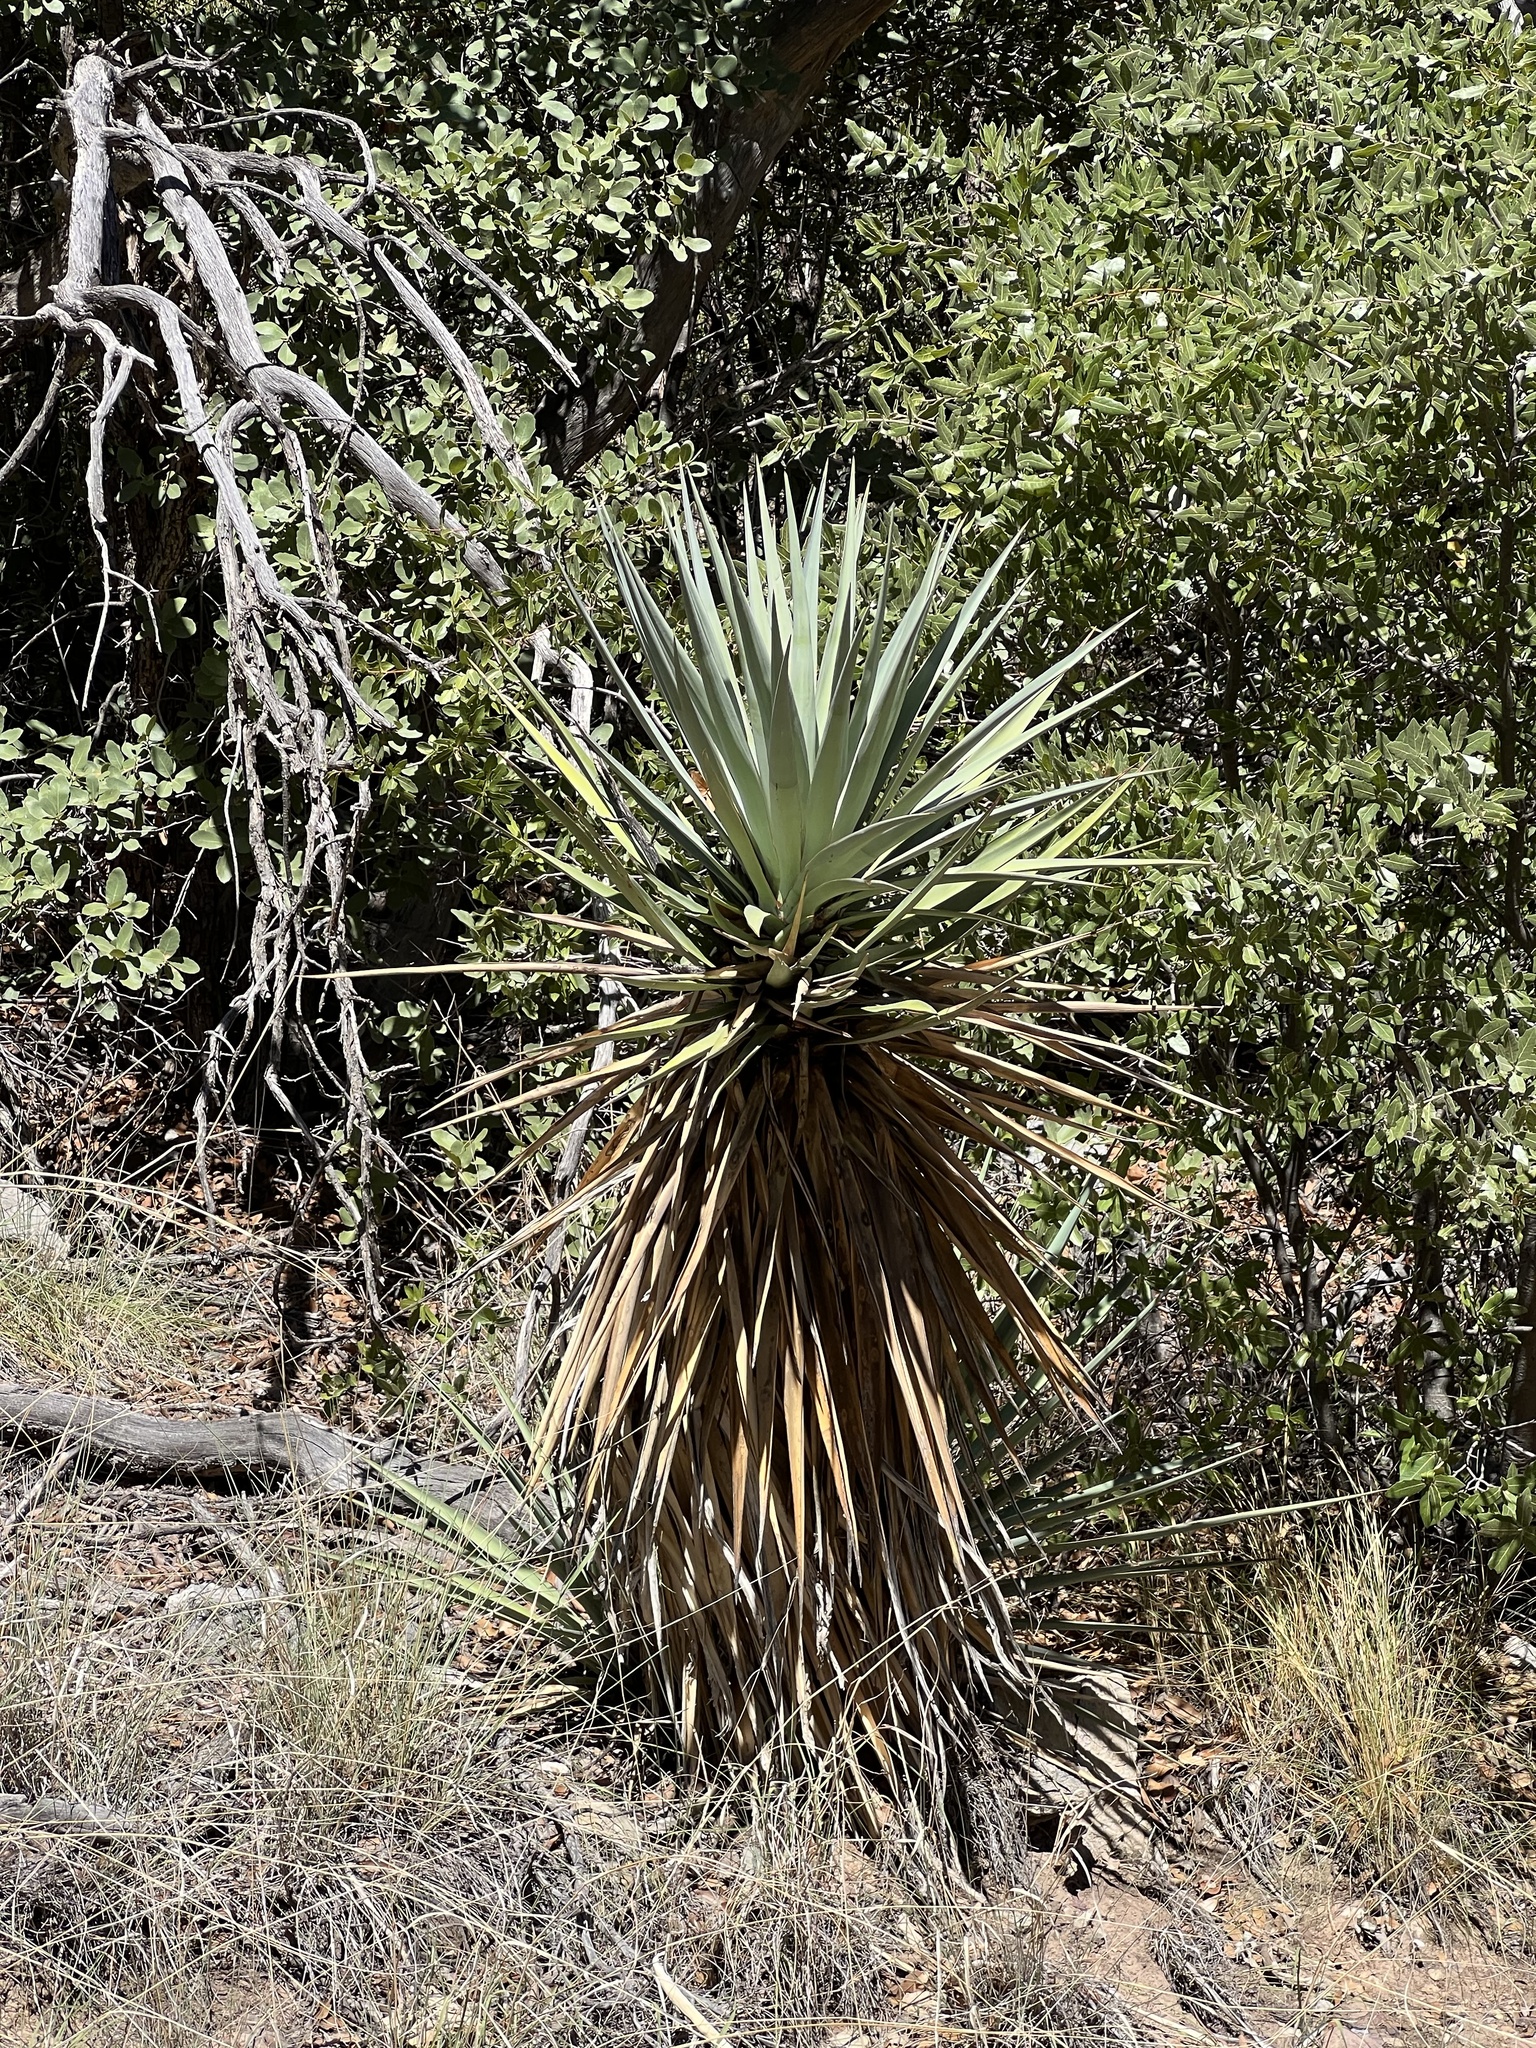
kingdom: Plantae
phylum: Tracheophyta
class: Liliopsida
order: Asparagales
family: Asparagaceae
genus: Yucca
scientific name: Yucca schottii
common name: Hoary yucca
